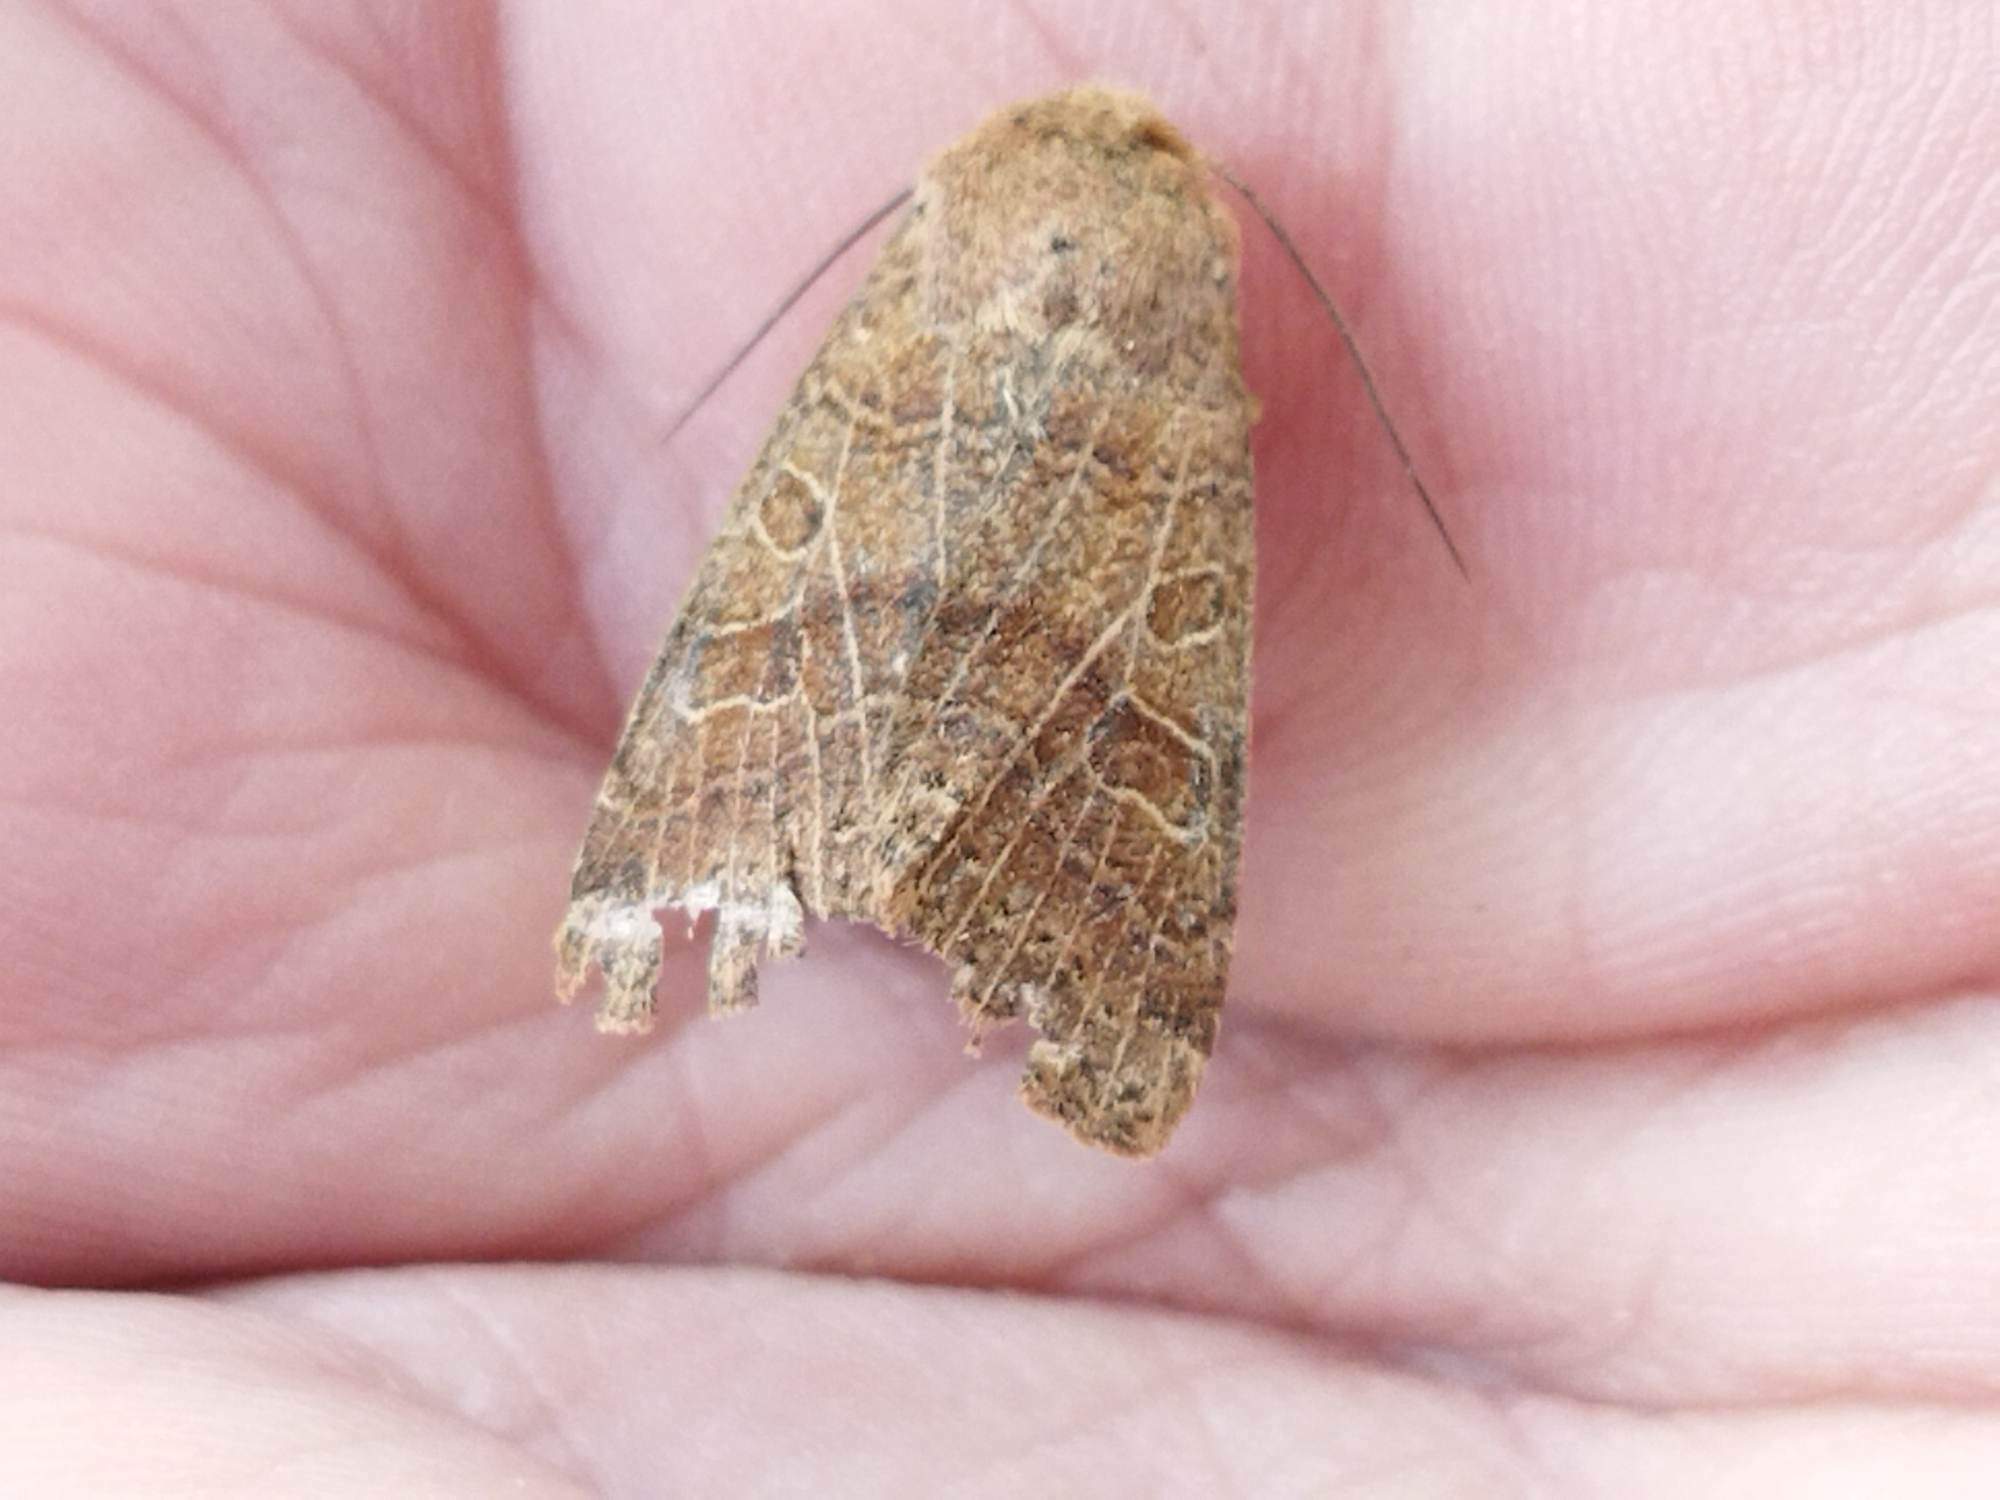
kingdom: Animalia
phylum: Arthropoda
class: Insecta
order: Lepidoptera
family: Noctuidae
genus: Agrochola
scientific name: Agrochola nitida
